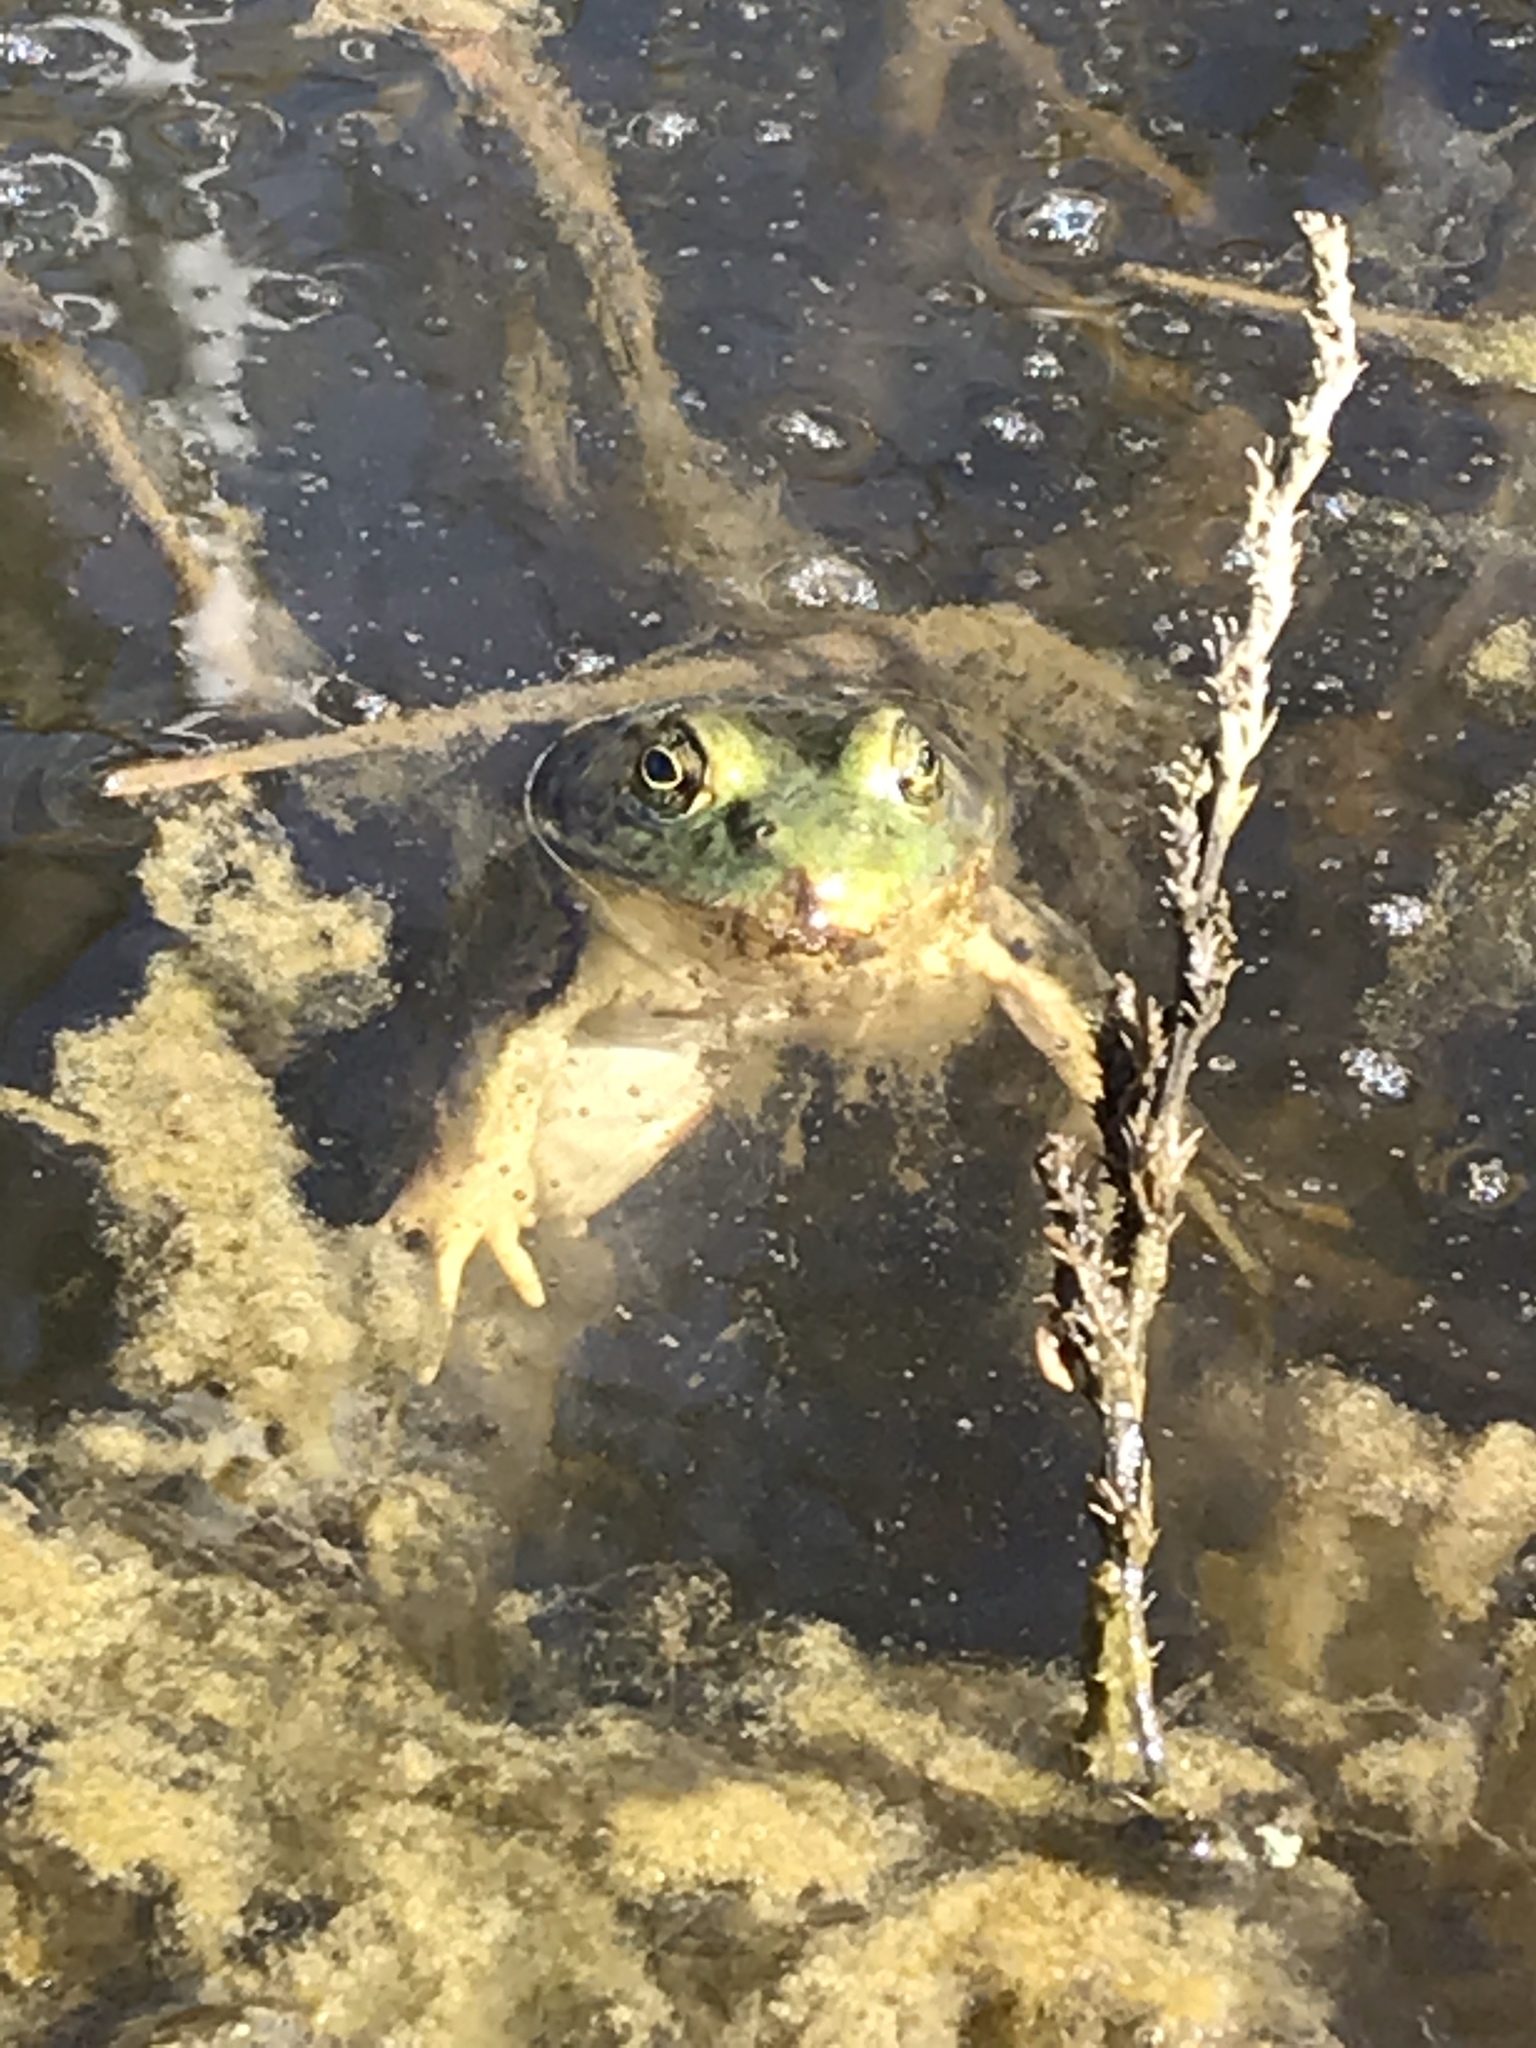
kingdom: Animalia
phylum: Chordata
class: Amphibia
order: Anura
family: Ranidae
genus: Lithobates
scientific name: Lithobates
